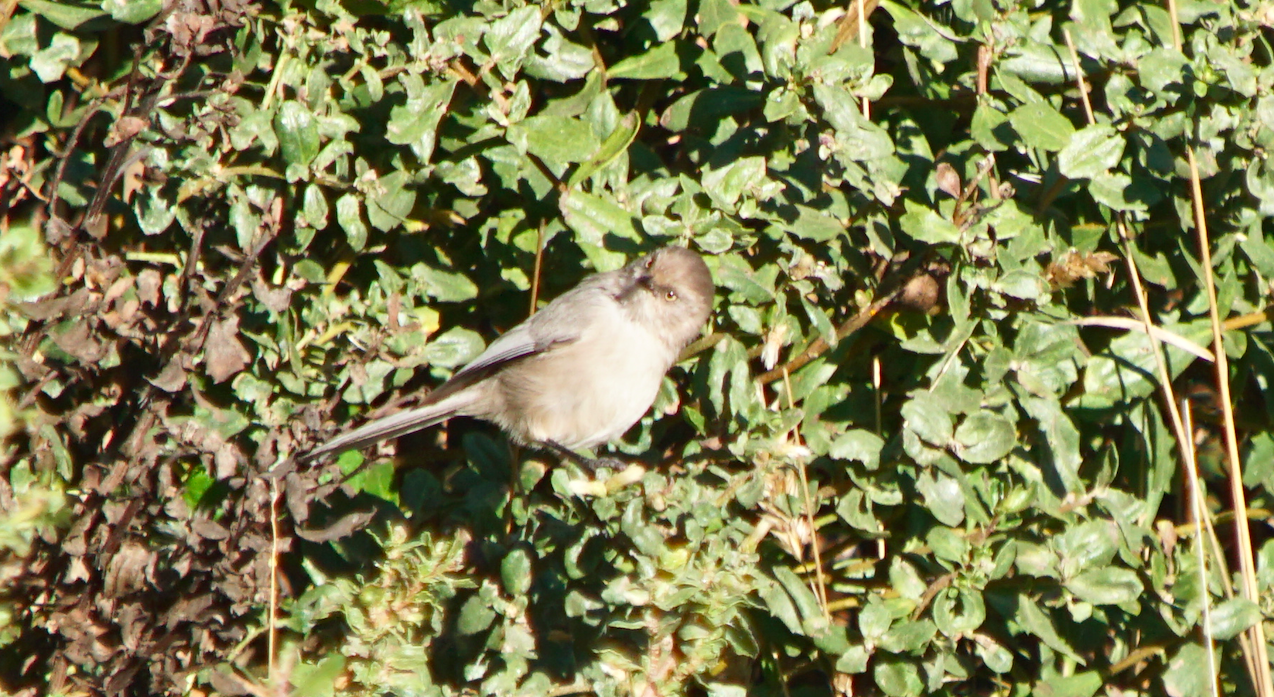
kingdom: Animalia
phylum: Chordata
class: Aves
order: Passeriformes
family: Aegithalidae
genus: Psaltriparus
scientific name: Psaltriparus minimus
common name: American bushtit
